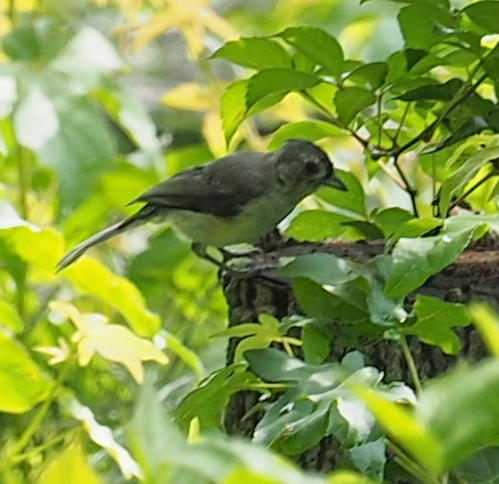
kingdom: Animalia
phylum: Chordata
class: Aves
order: Passeriformes
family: Paridae
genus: Baeolophus
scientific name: Baeolophus bicolor
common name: Tufted titmouse
